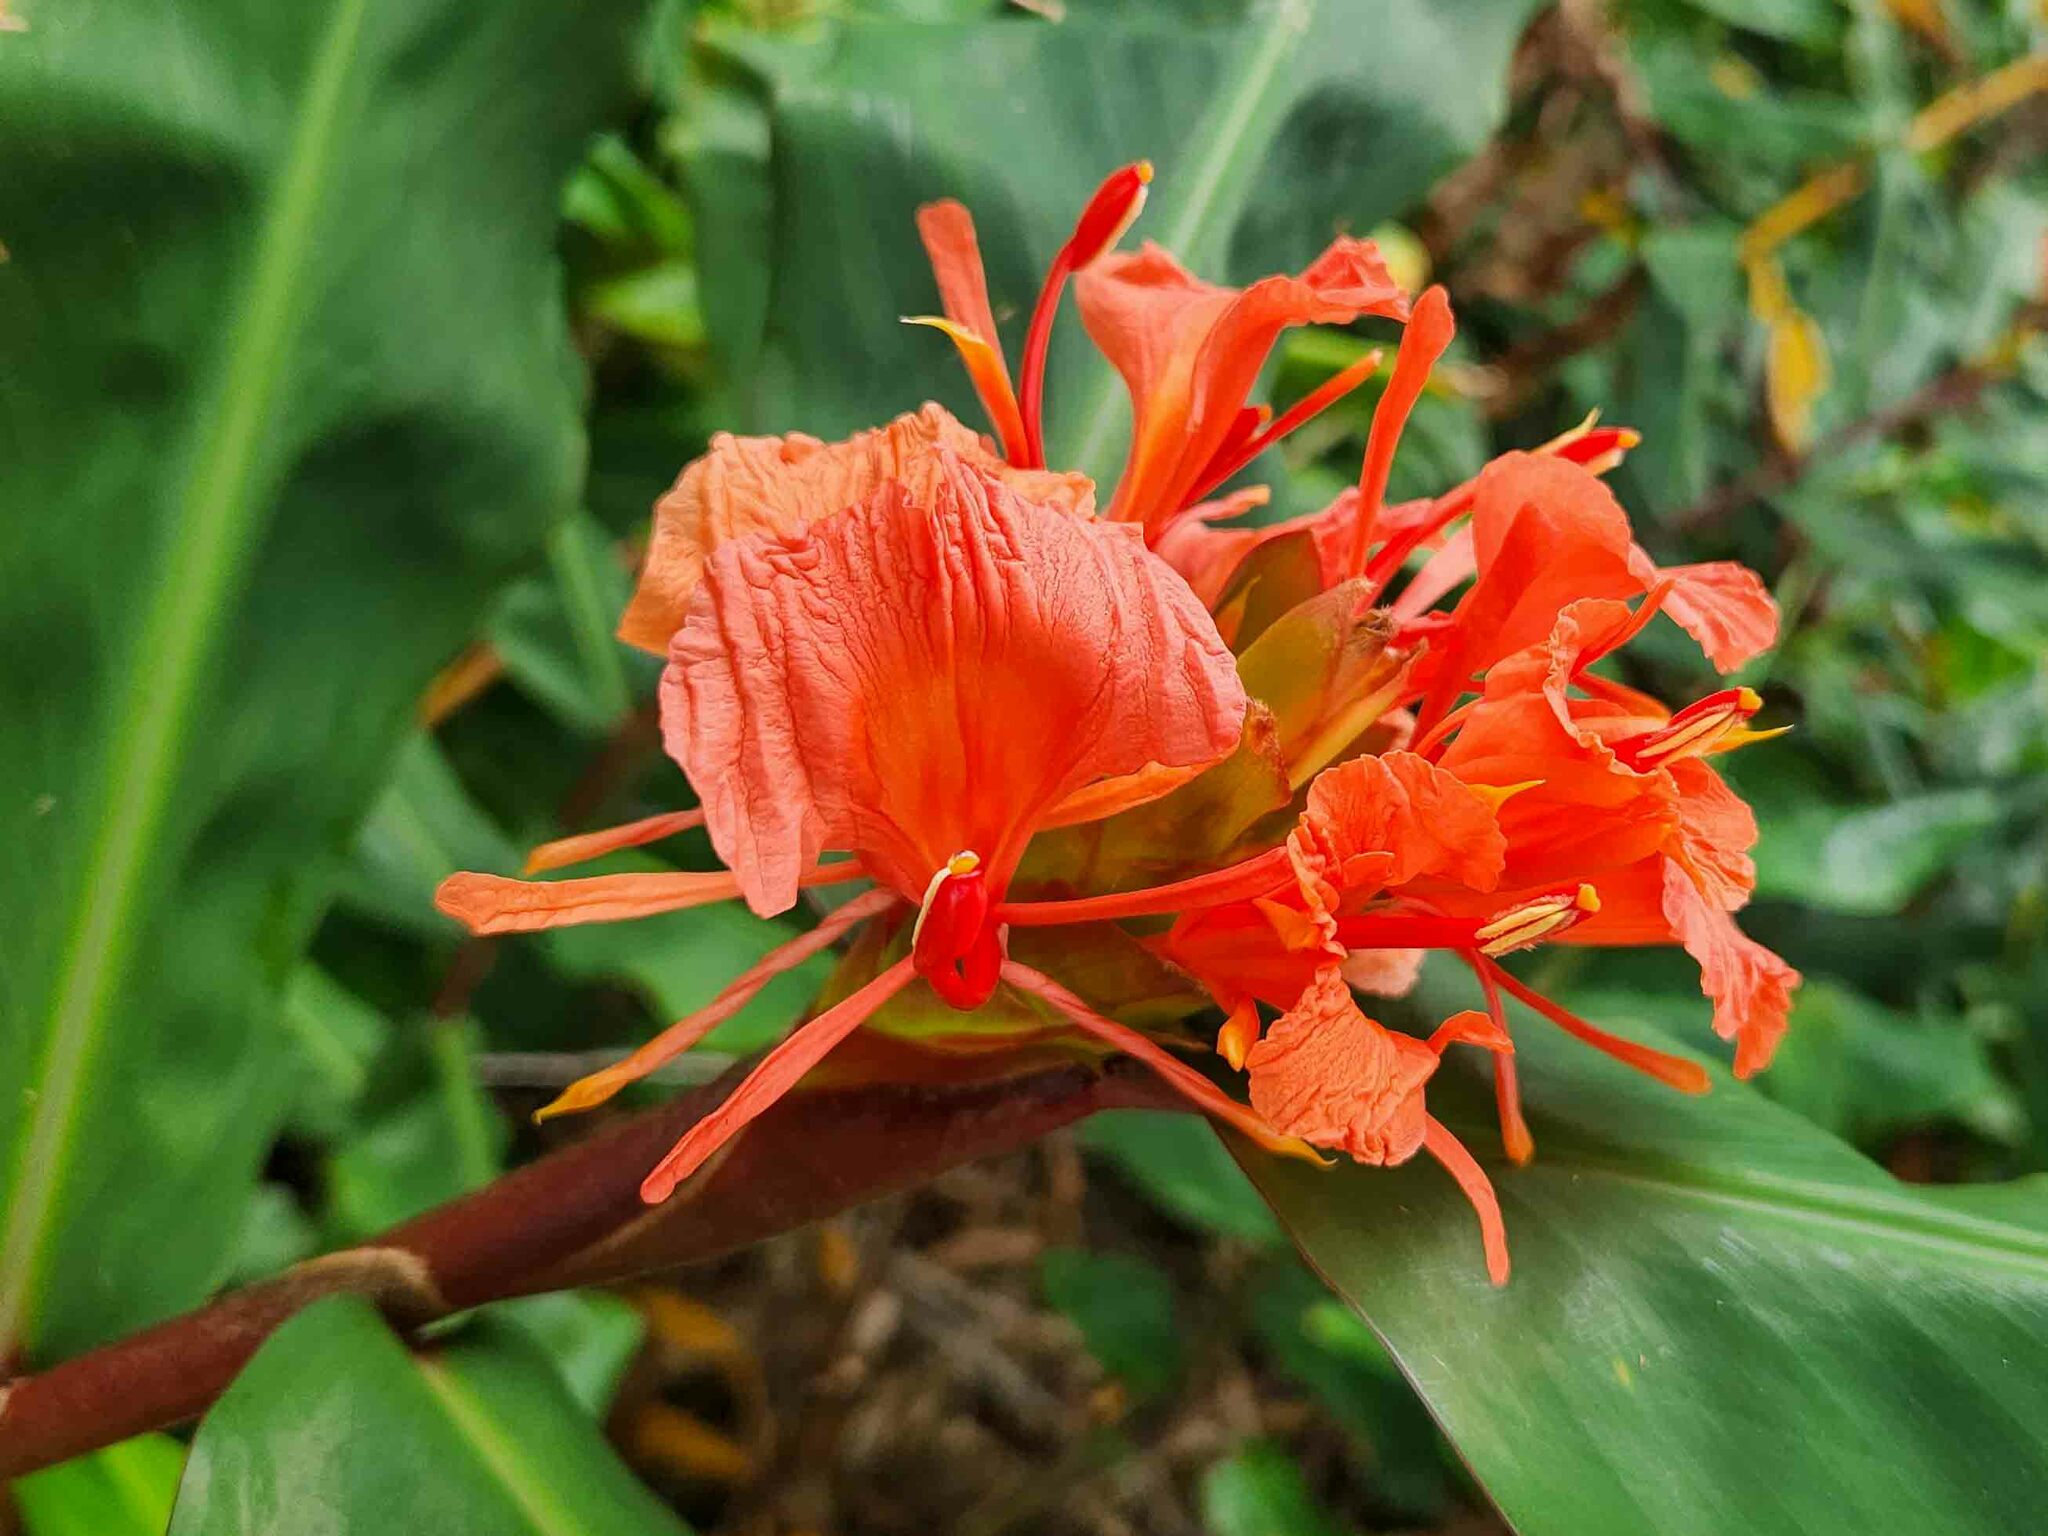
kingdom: Plantae
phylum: Tracheophyta
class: Liliopsida
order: Zingiberales
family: Zingiberaceae
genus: Hedychium
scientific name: Hedychium greenii
